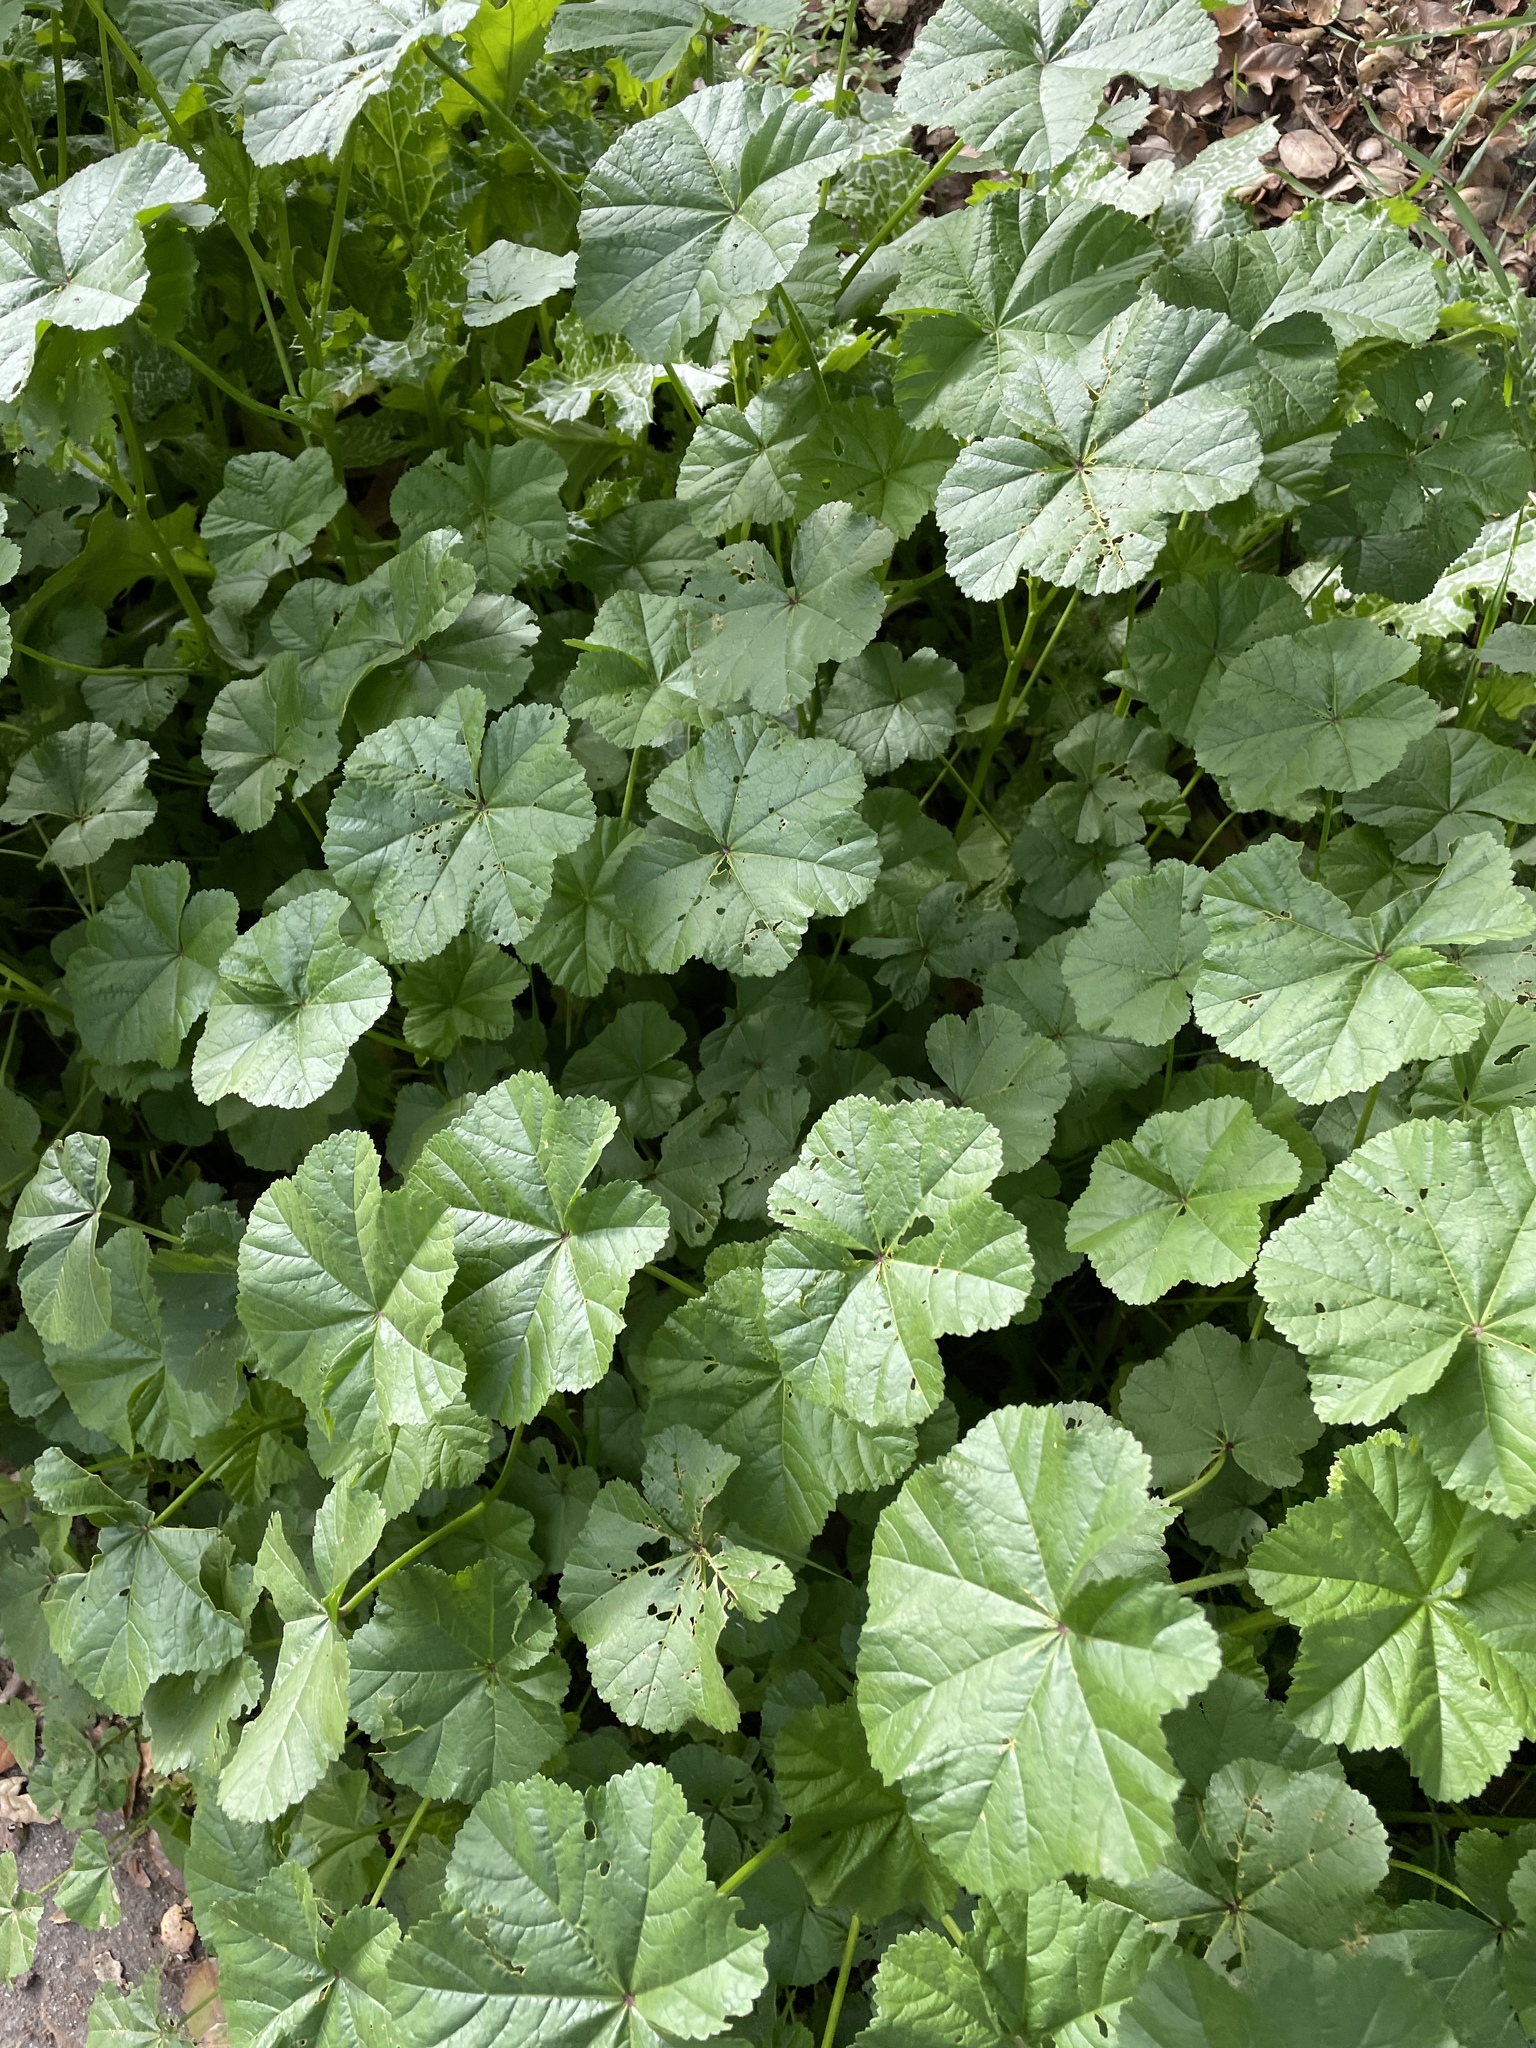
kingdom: Plantae
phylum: Tracheophyta
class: Magnoliopsida
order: Malvales
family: Malvaceae
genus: Malva
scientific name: Malva
